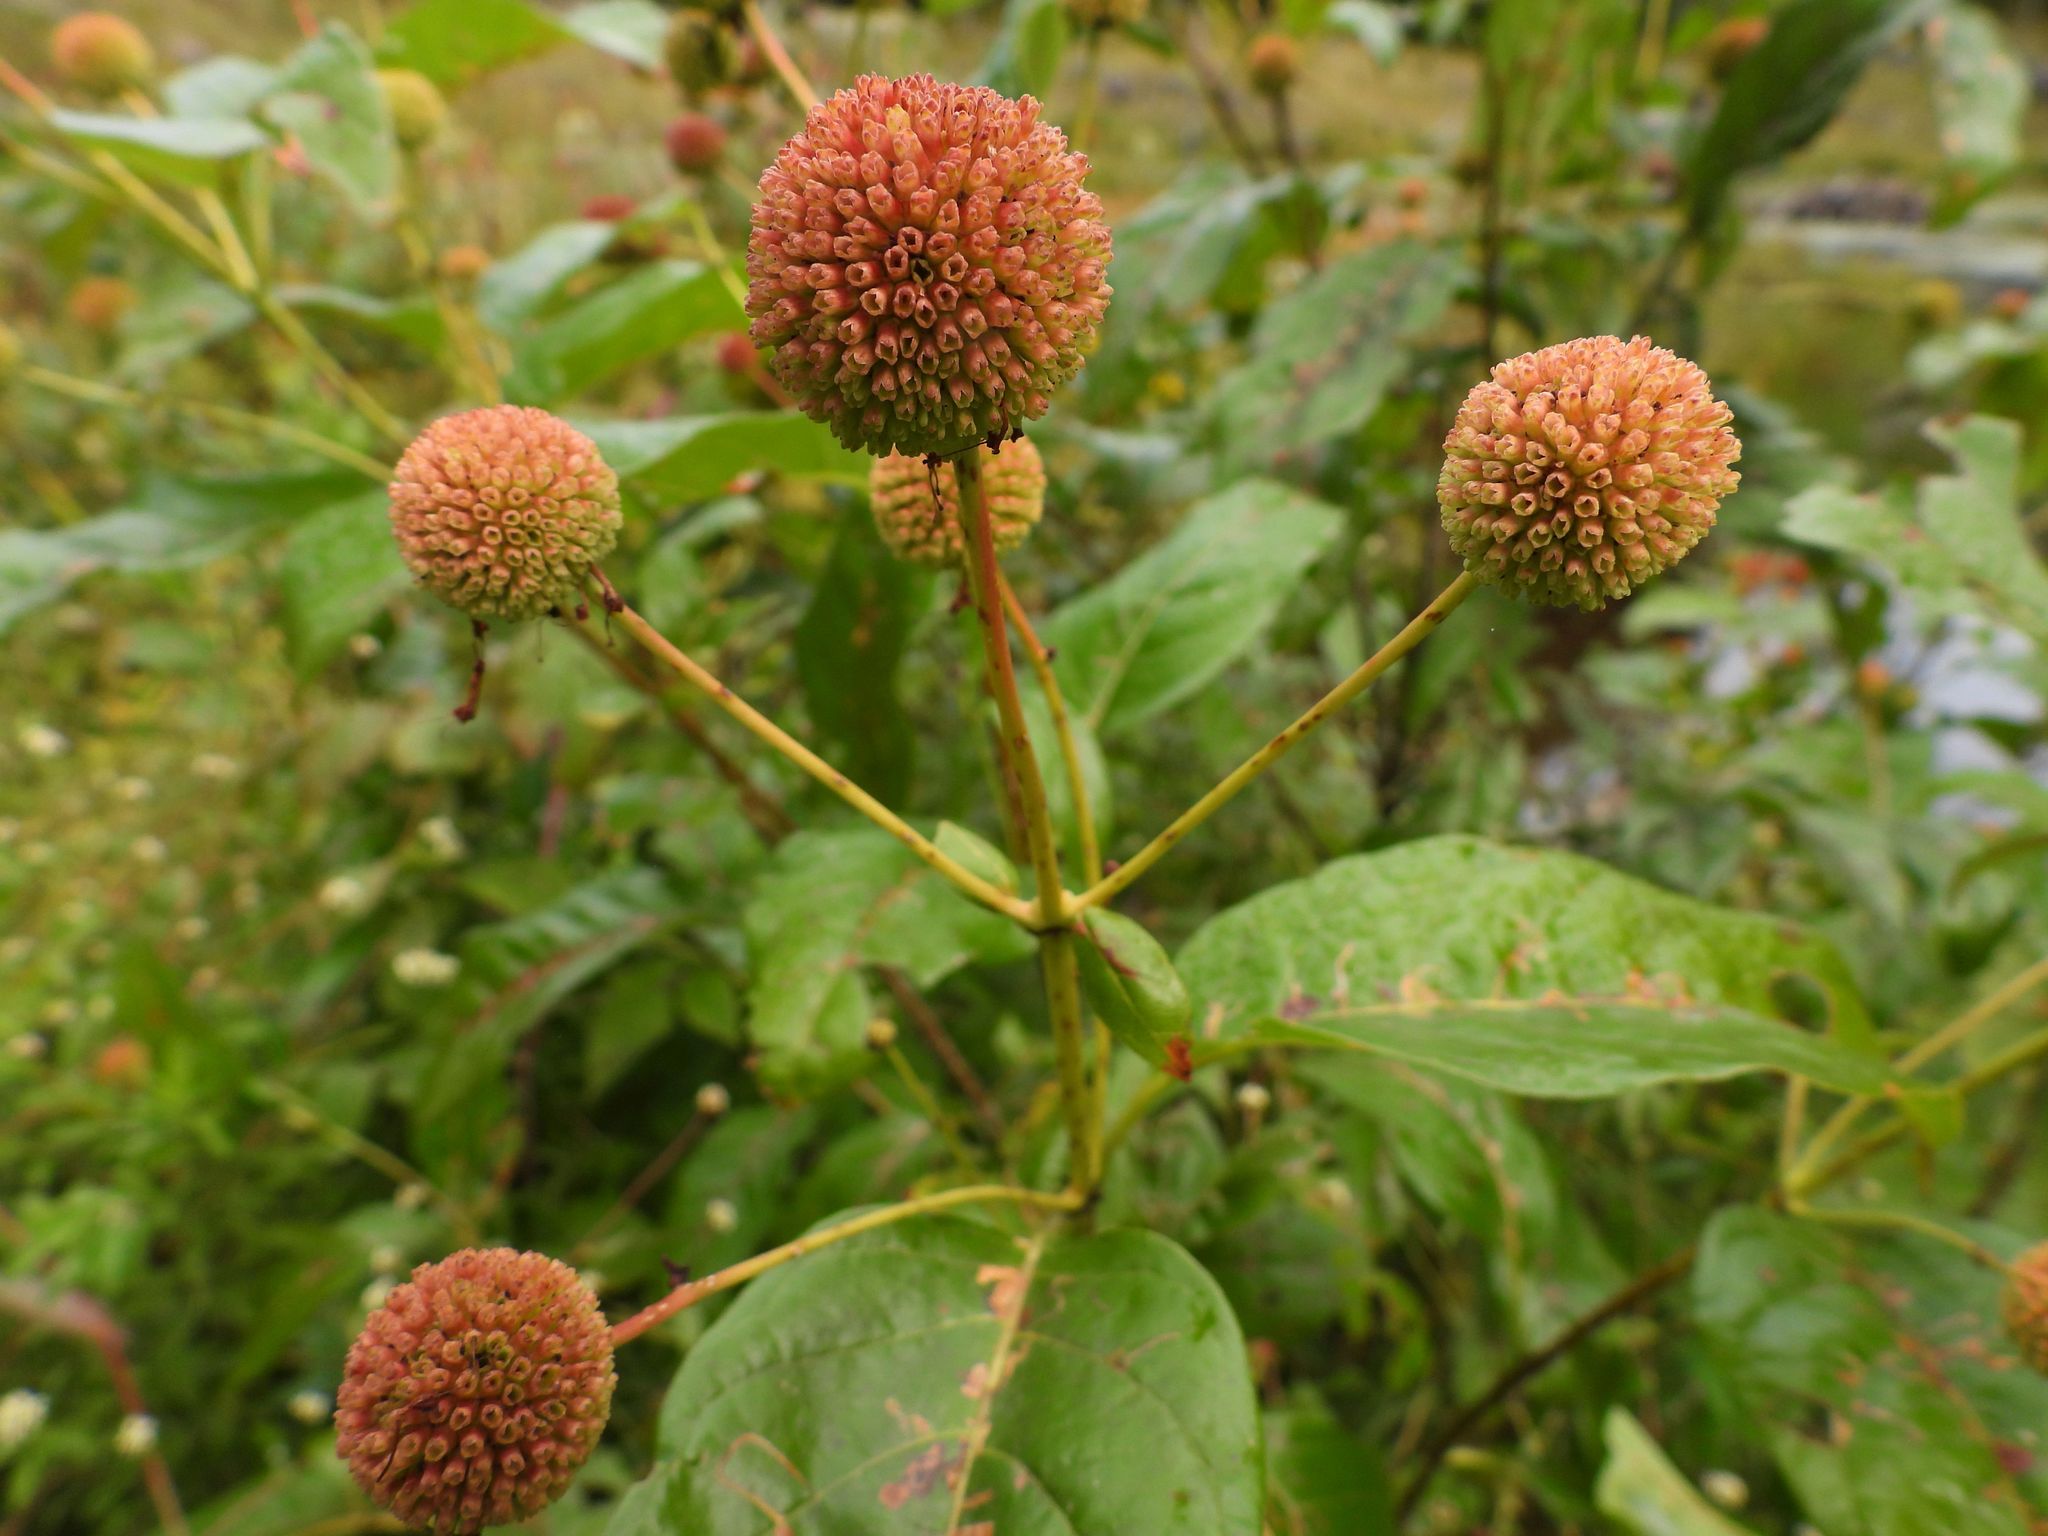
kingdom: Plantae
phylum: Tracheophyta
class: Magnoliopsida
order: Gentianales
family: Rubiaceae
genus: Cephalanthus
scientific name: Cephalanthus occidentalis
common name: Button-willow
